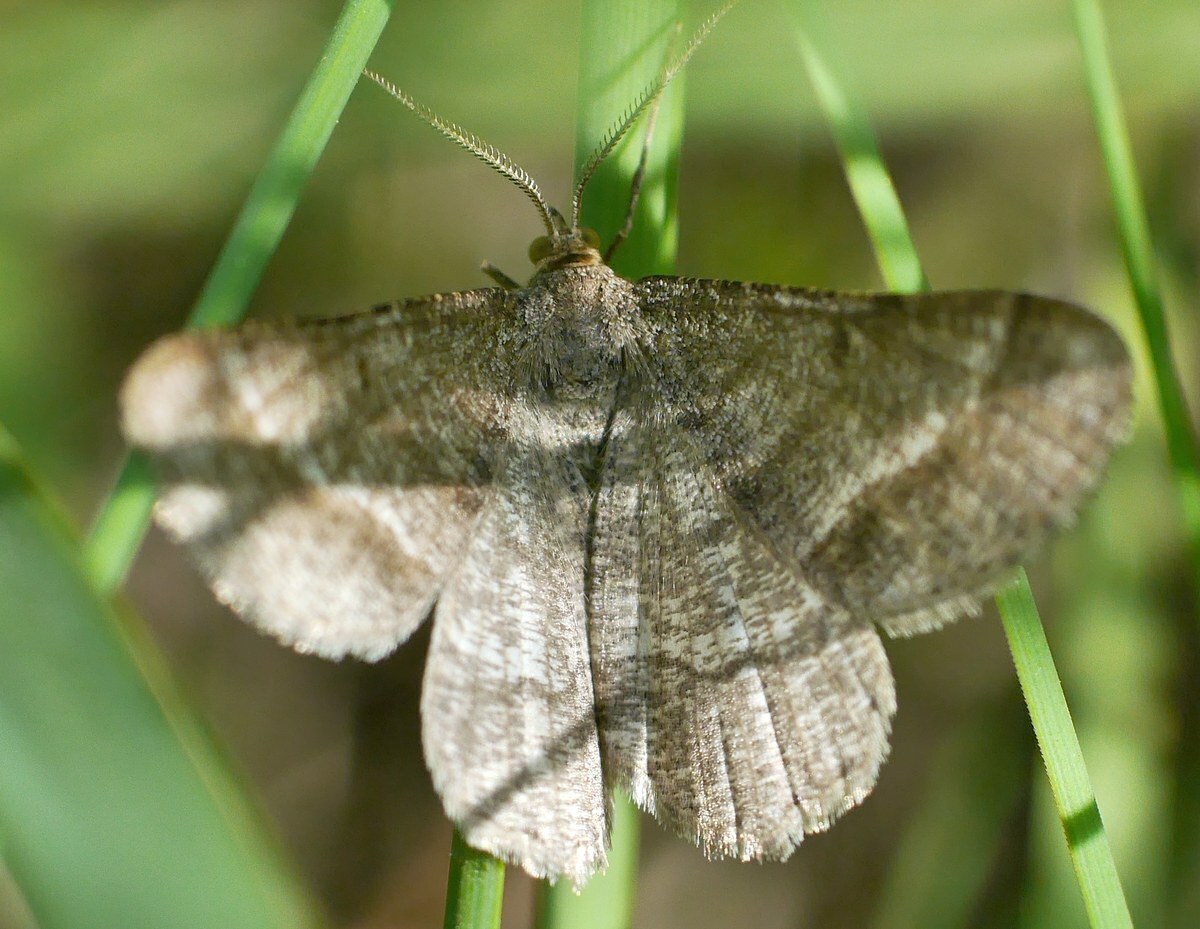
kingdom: Animalia
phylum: Arthropoda
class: Insecta
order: Lepidoptera
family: Geometridae
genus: Tephrina
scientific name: Tephrina murinaria
